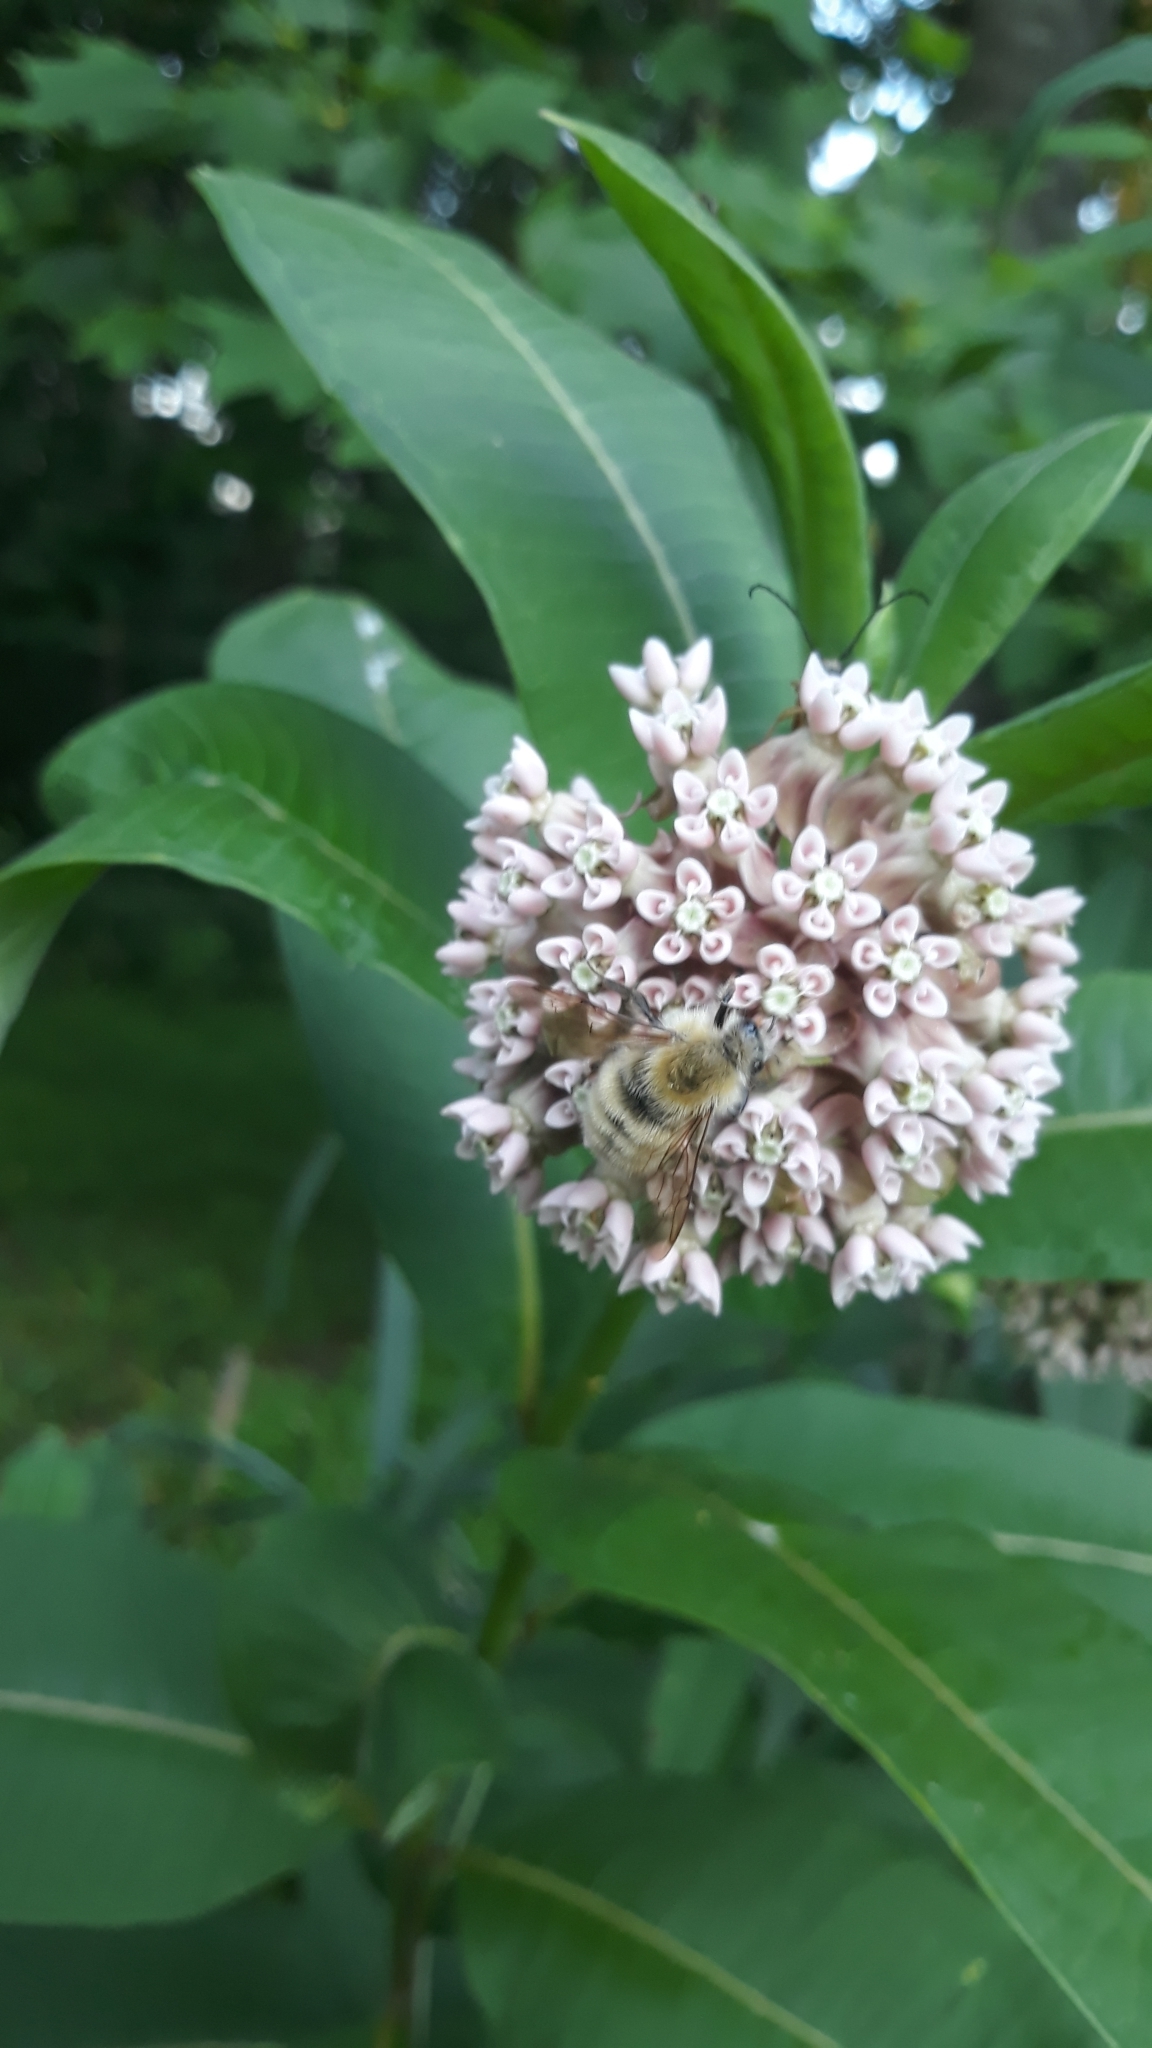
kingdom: Animalia
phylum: Arthropoda
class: Insecta
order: Hymenoptera
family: Apidae
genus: Bombus
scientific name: Bombus perplexus
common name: Confusing bumble bee
